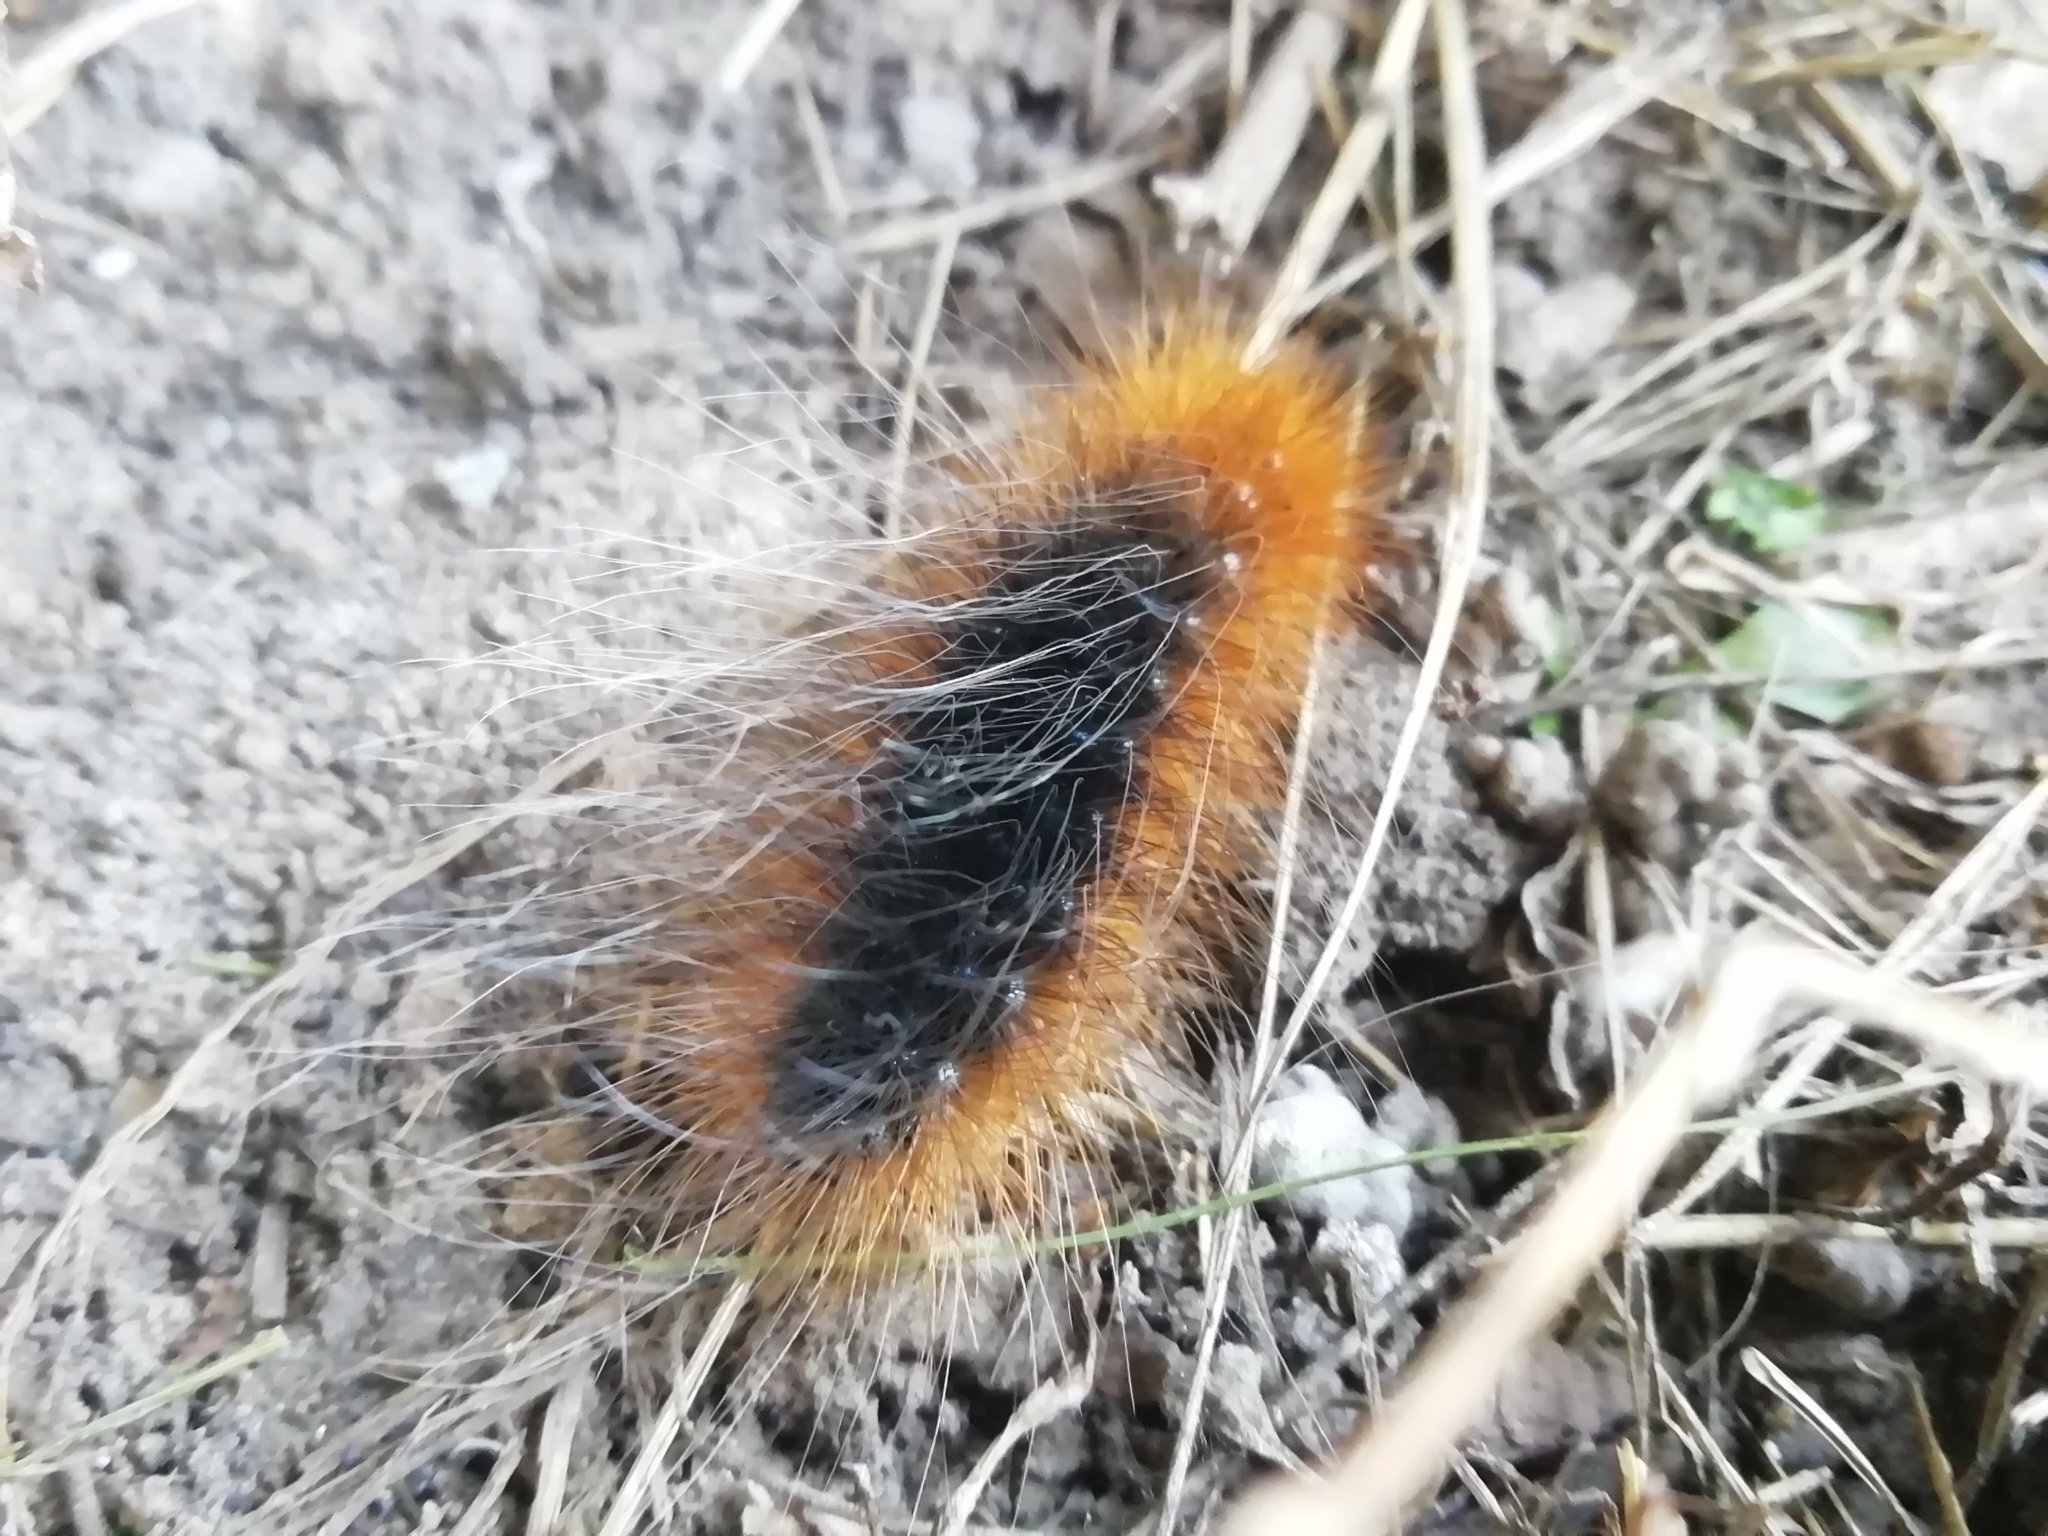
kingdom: Animalia
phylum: Arthropoda
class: Insecta
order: Lepidoptera
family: Erebidae
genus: Arctia
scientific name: Arctia caja
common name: Garden tiger
